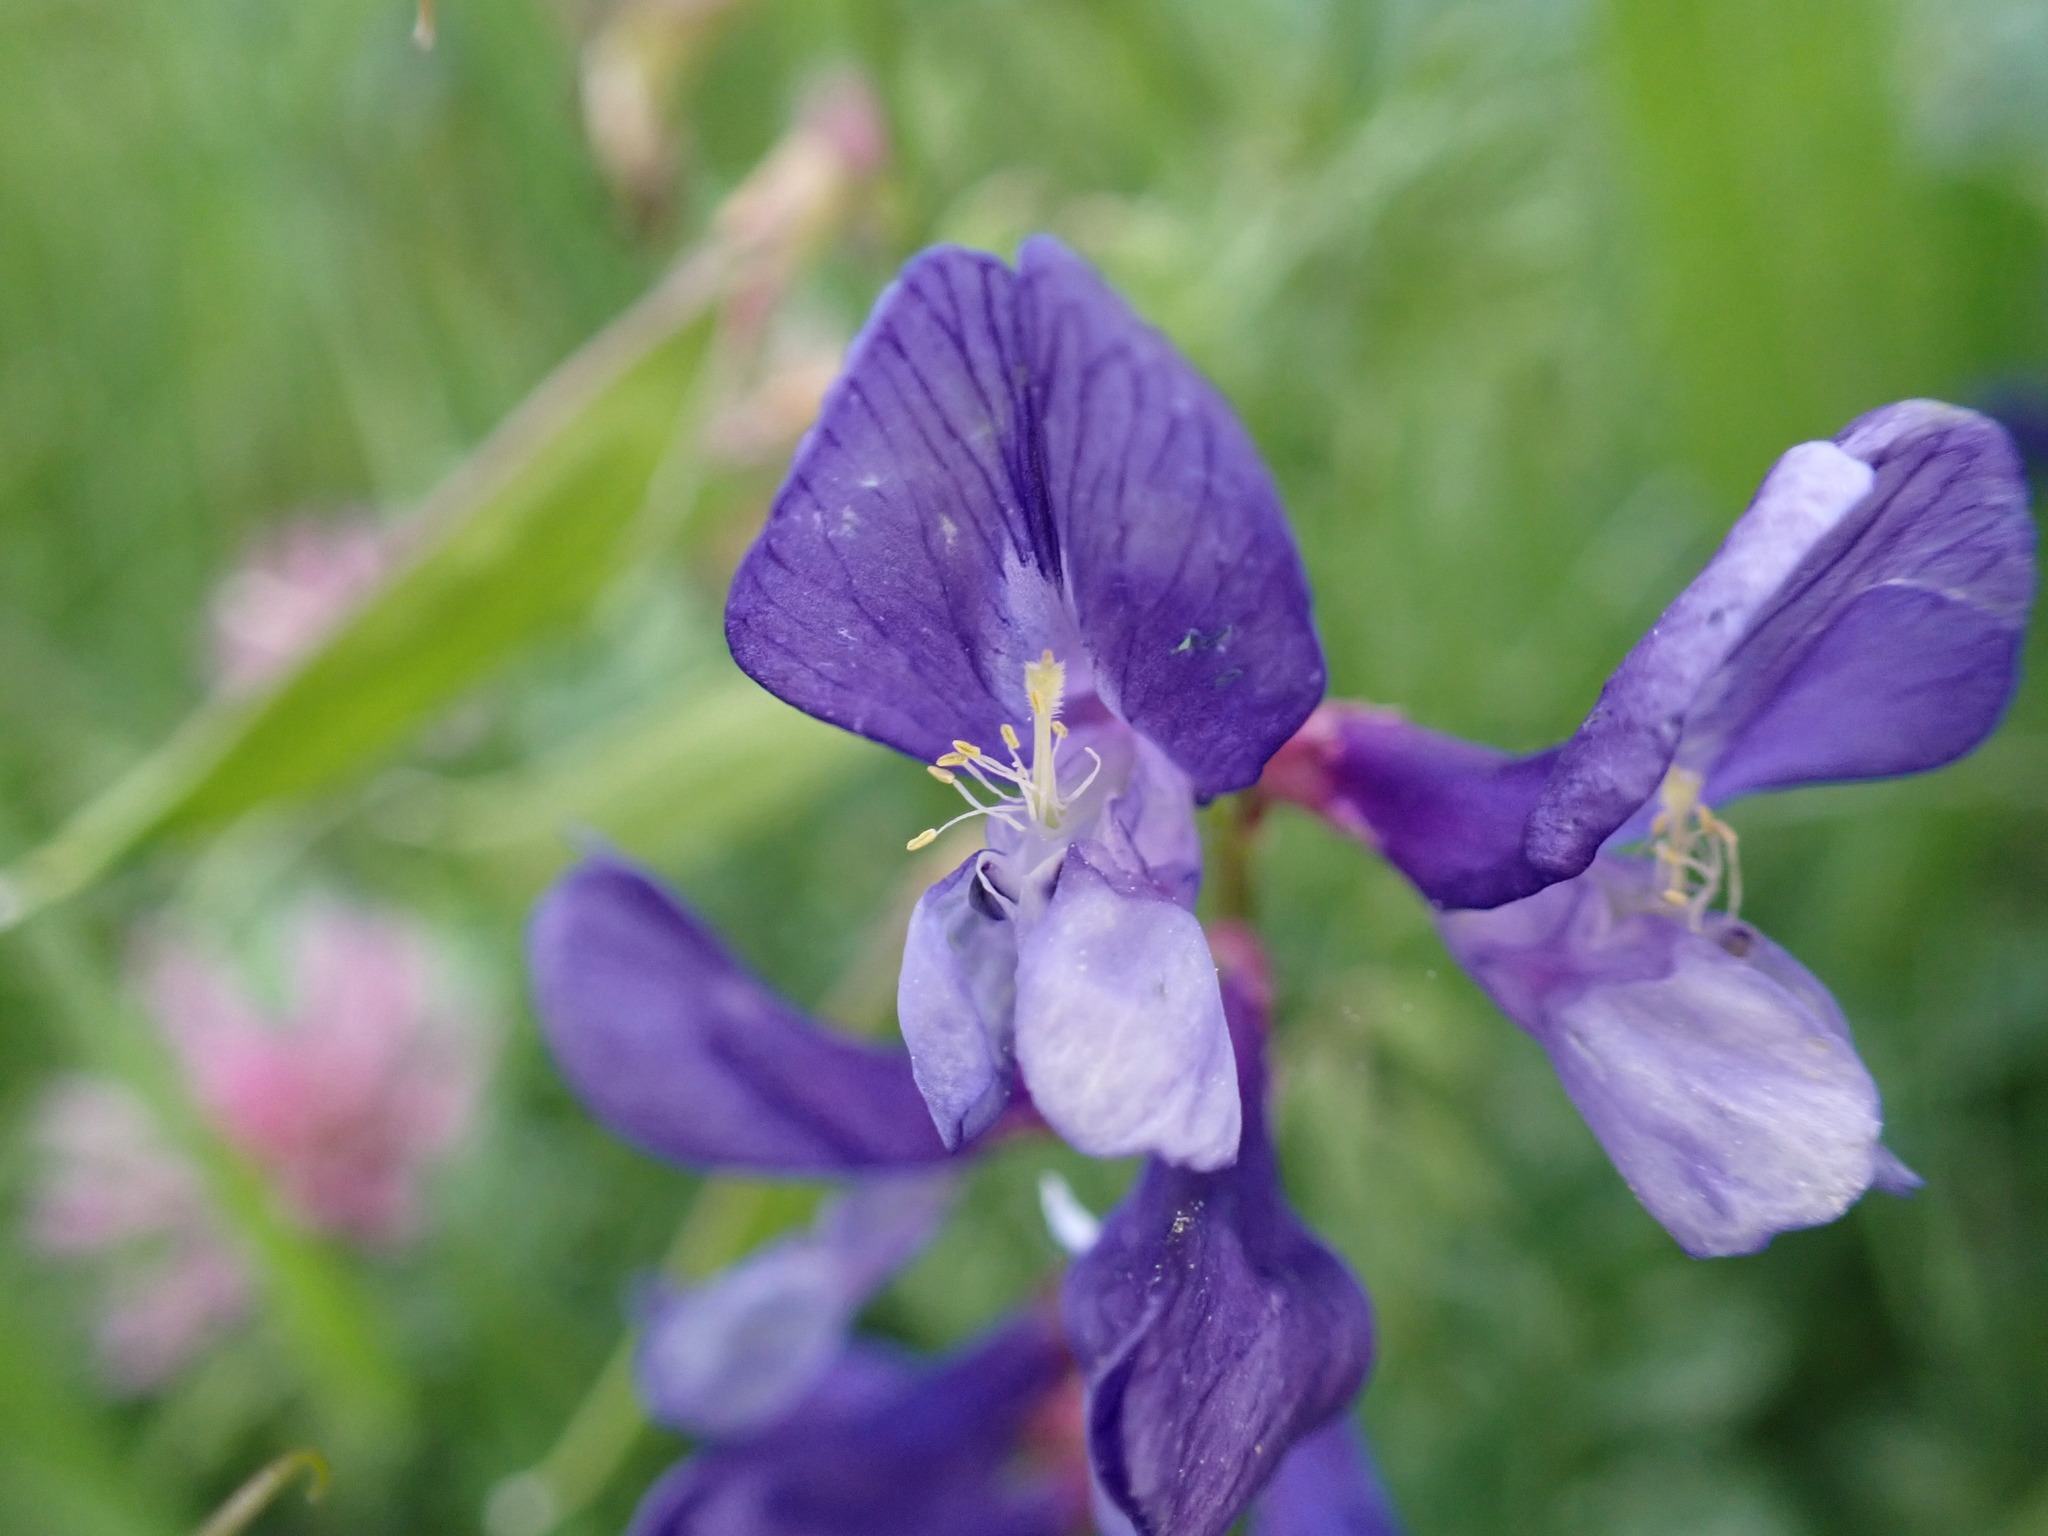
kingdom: Plantae
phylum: Tracheophyta
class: Magnoliopsida
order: Fabales
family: Fabaceae
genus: Vicia
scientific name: Vicia onobrychioides
